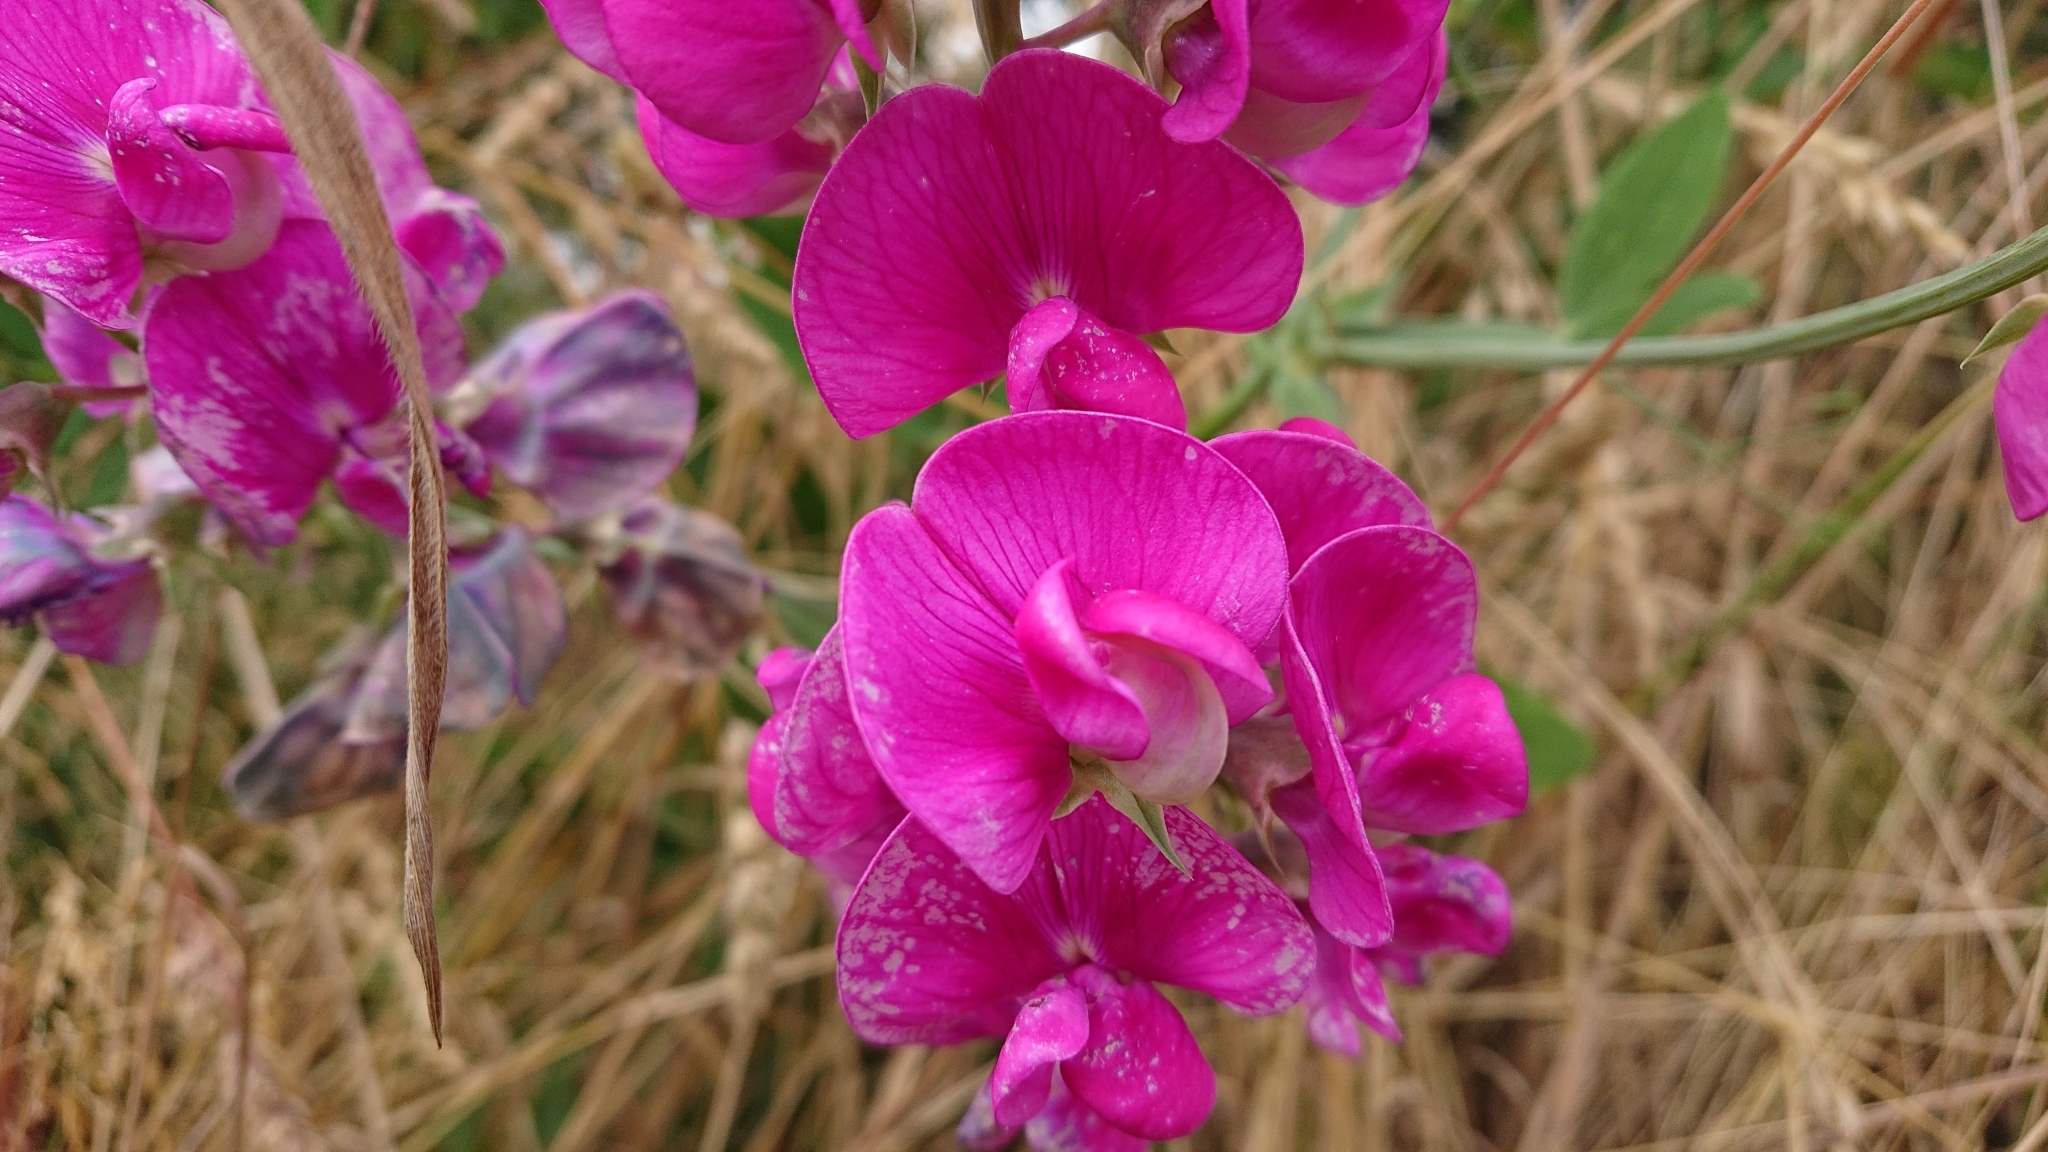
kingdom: Plantae
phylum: Tracheophyta
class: Magnoliopsida
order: Fabales
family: Fabaceae
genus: Lathyrus
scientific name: Lathyrus latifolius
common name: Perennial pea
